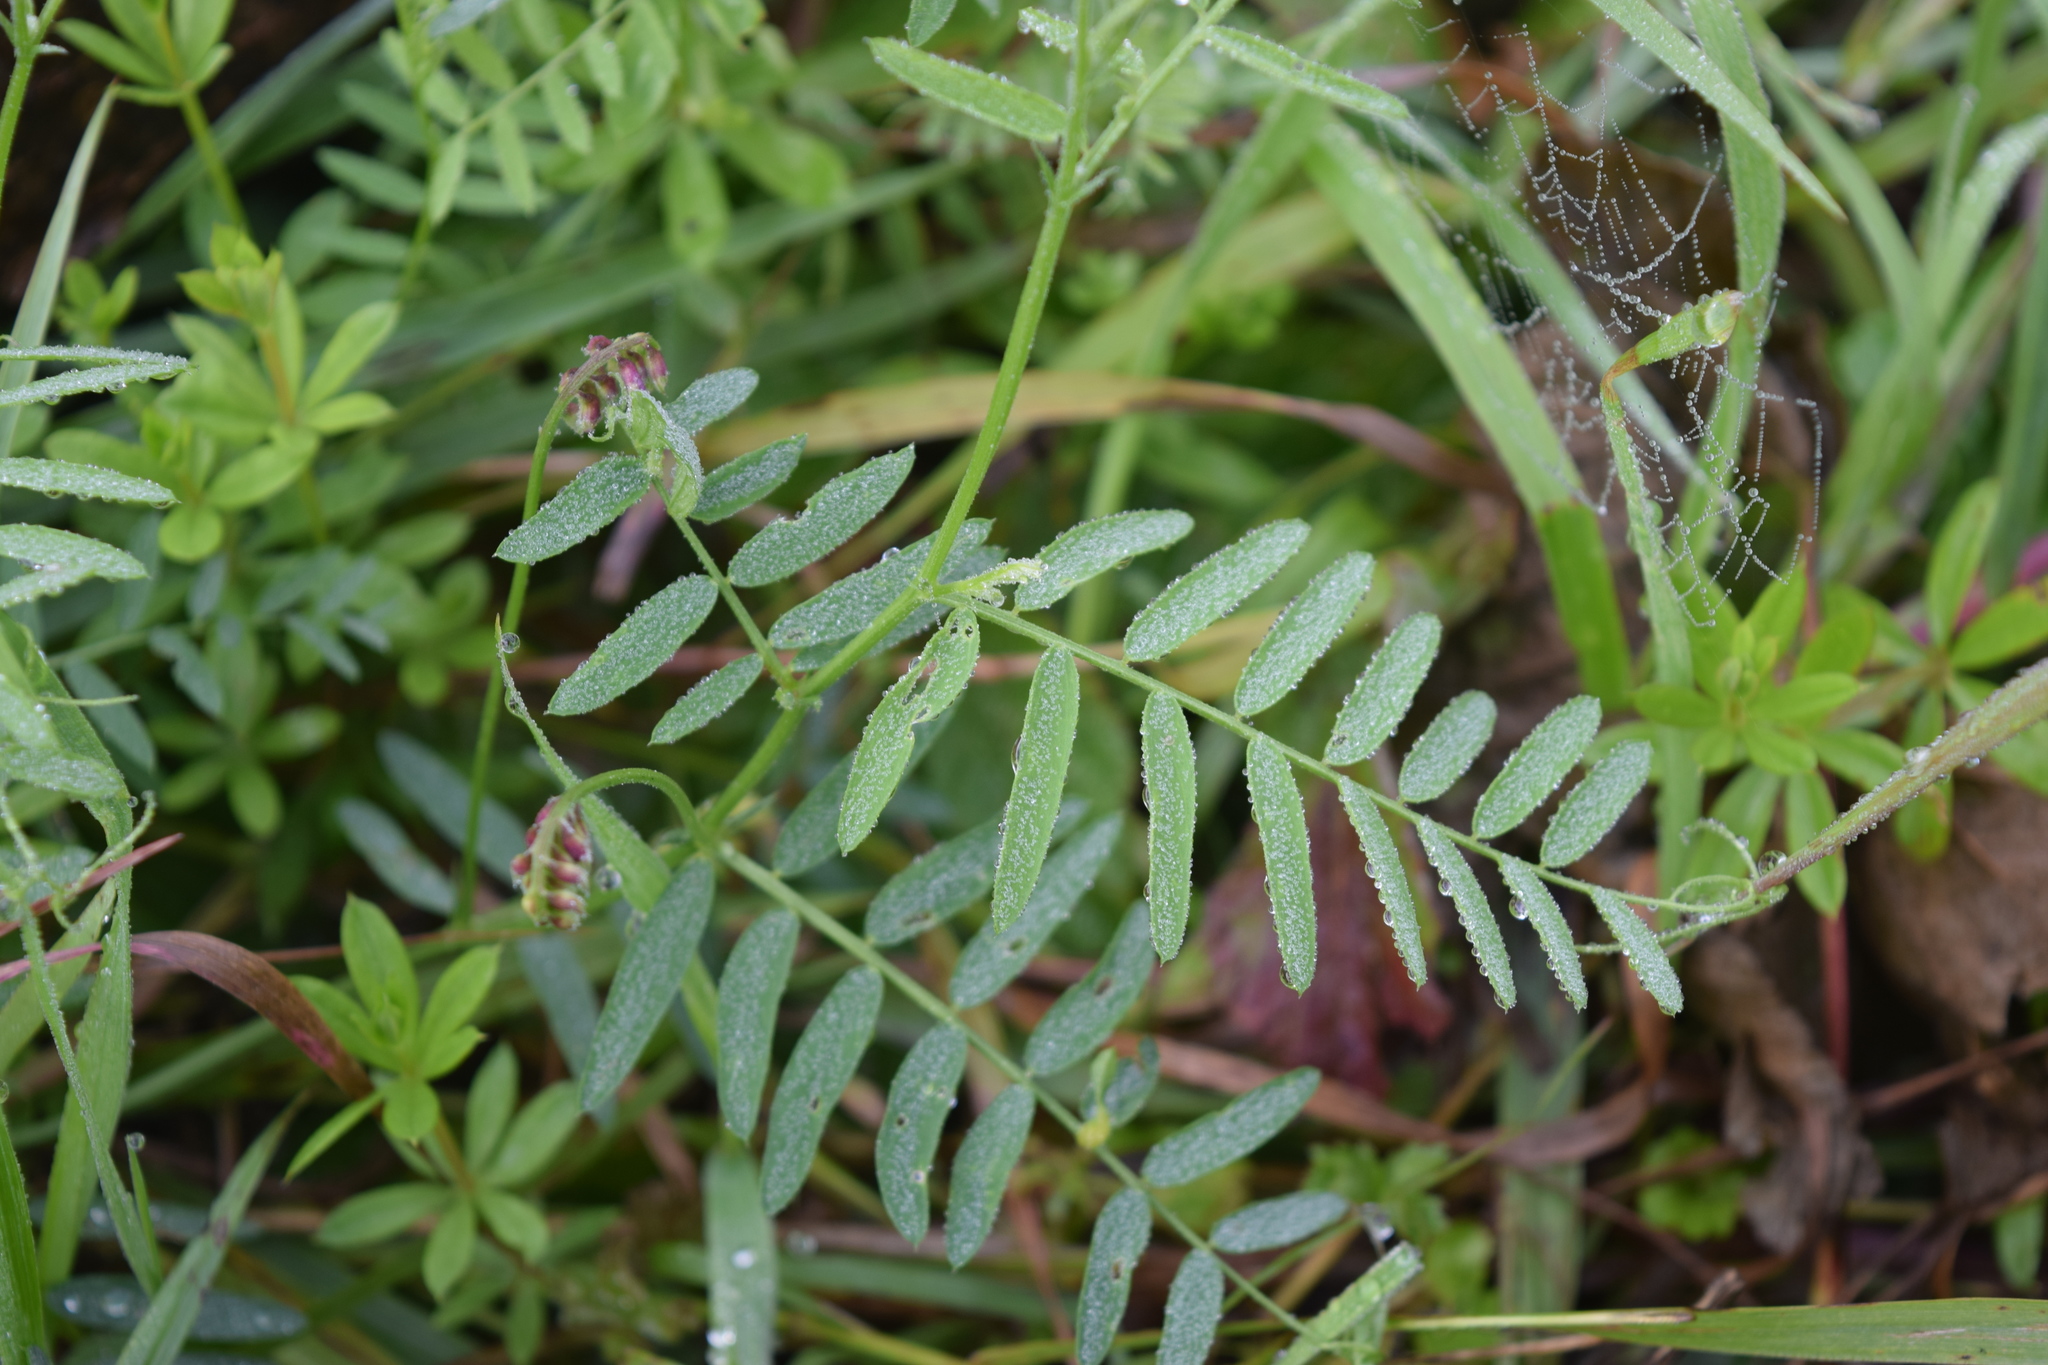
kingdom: Plantae
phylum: Tracheophyta
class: Magnoliopsida
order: Fabales
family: Fabaceae
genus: Vicia
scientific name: Vicia cassubica
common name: Danzig vetch
